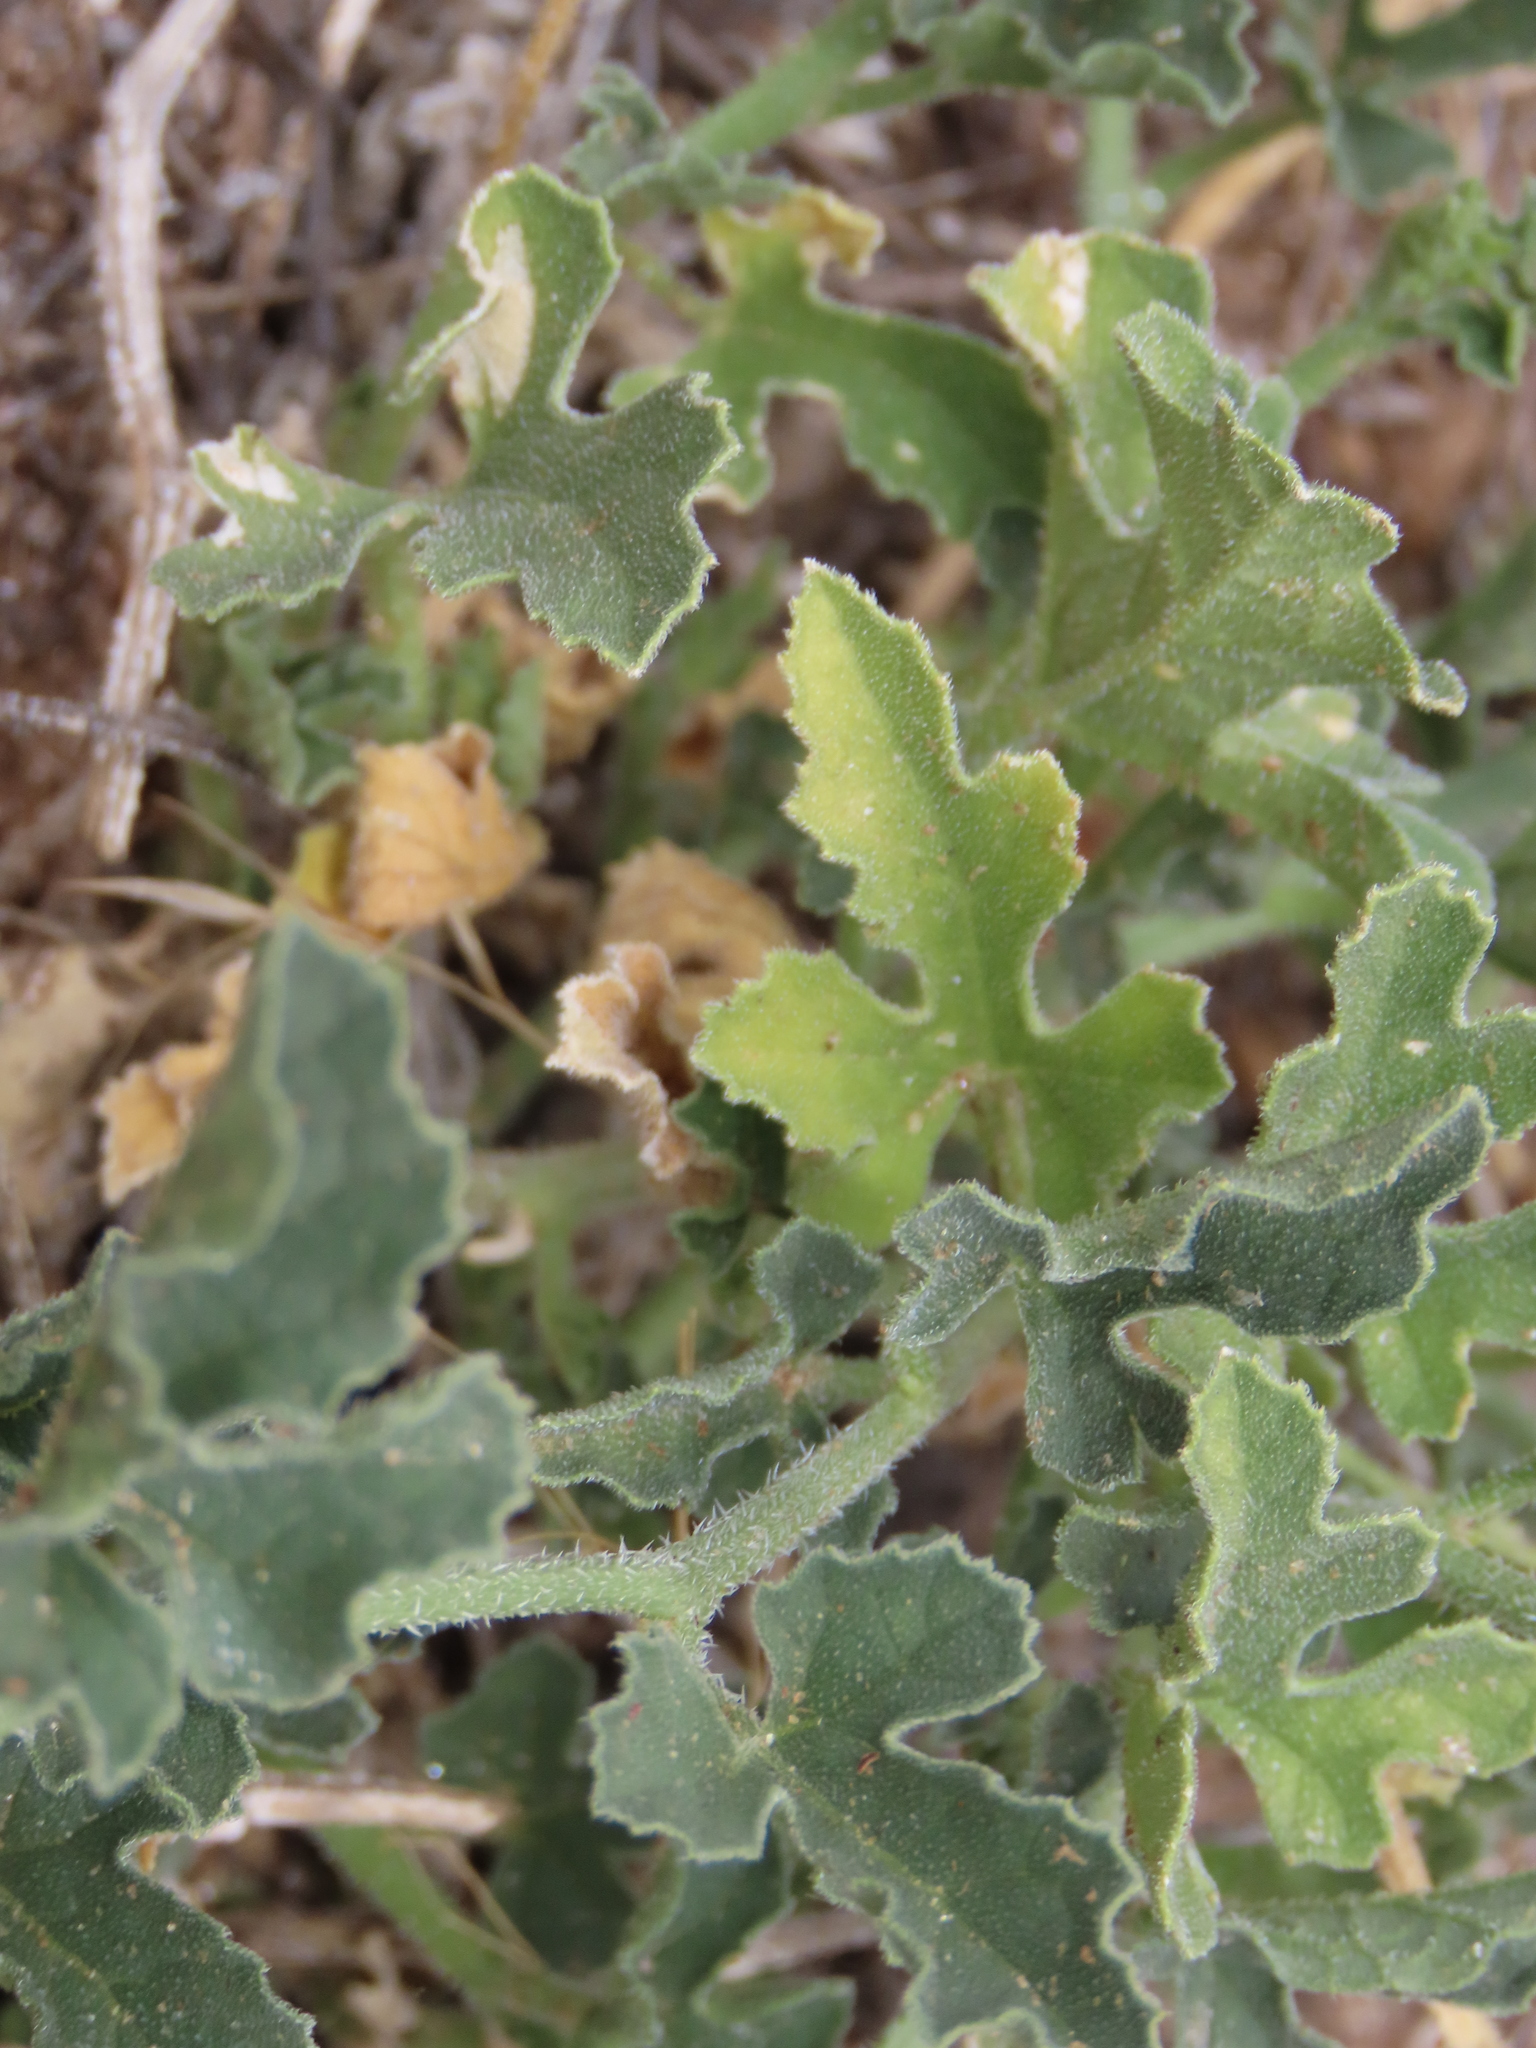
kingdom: Plantae
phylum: Tracheophyta
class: Magnoliopsida
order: Cucurbitales
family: Cucurbitaceae
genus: Cucumis
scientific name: Cucumis africanus
